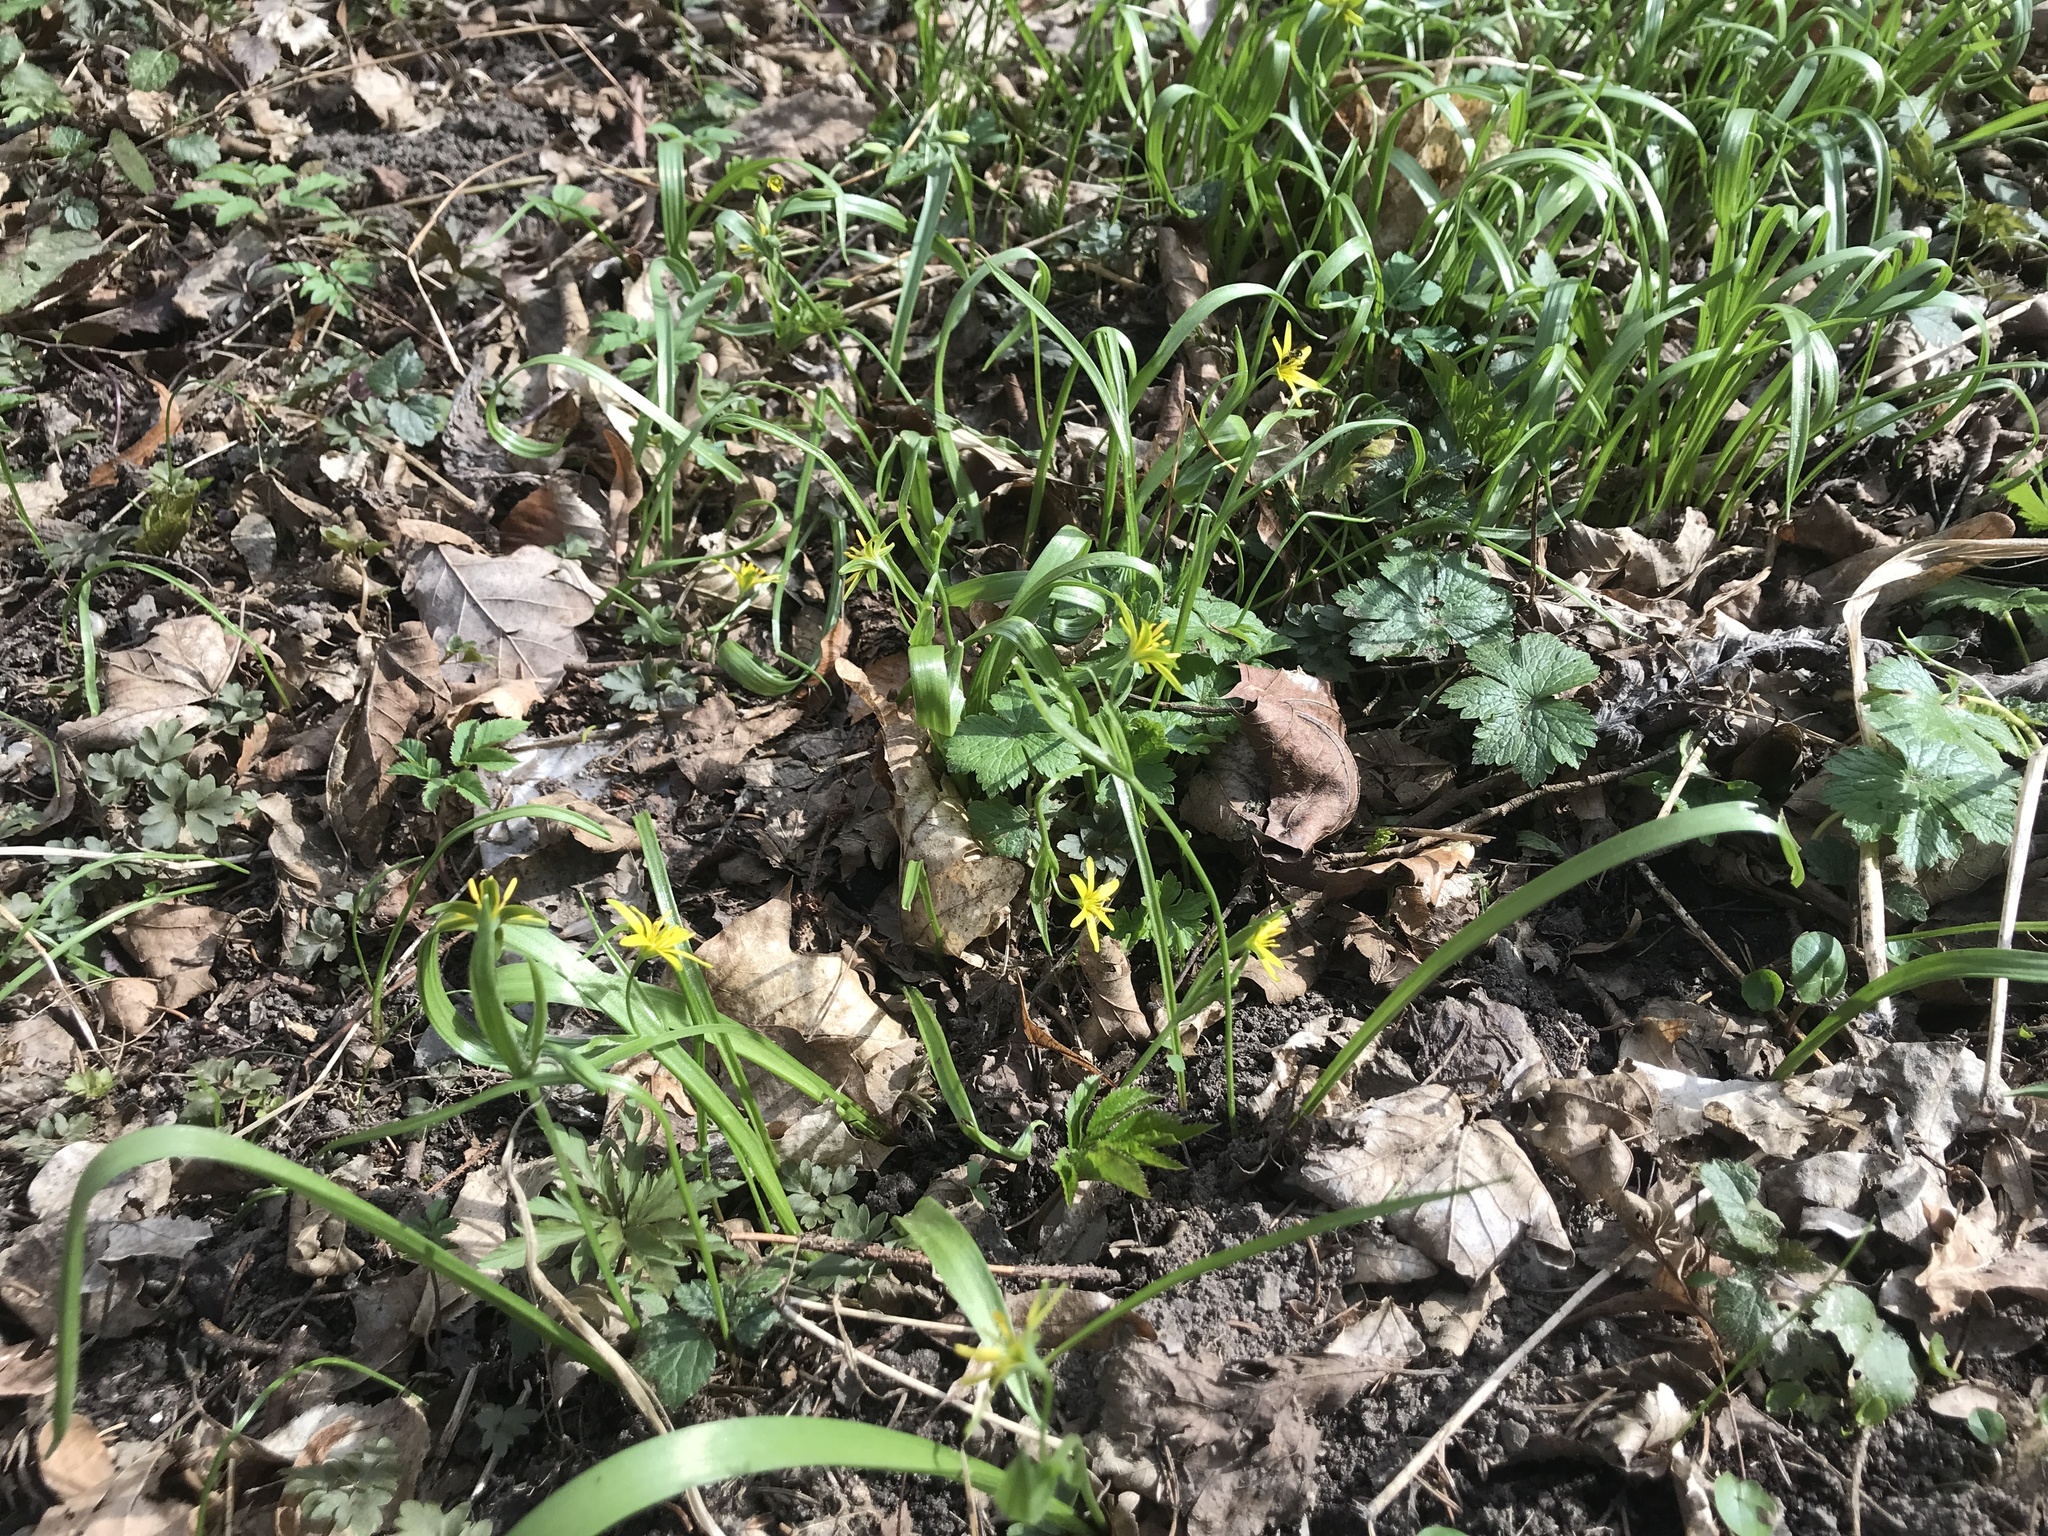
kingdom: Plantae
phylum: Tracheophyta
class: Liliopsida
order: Liliales
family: Liliaceae
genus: Gagea
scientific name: Gagea lutea
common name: Yellow star-of-bethlehem
